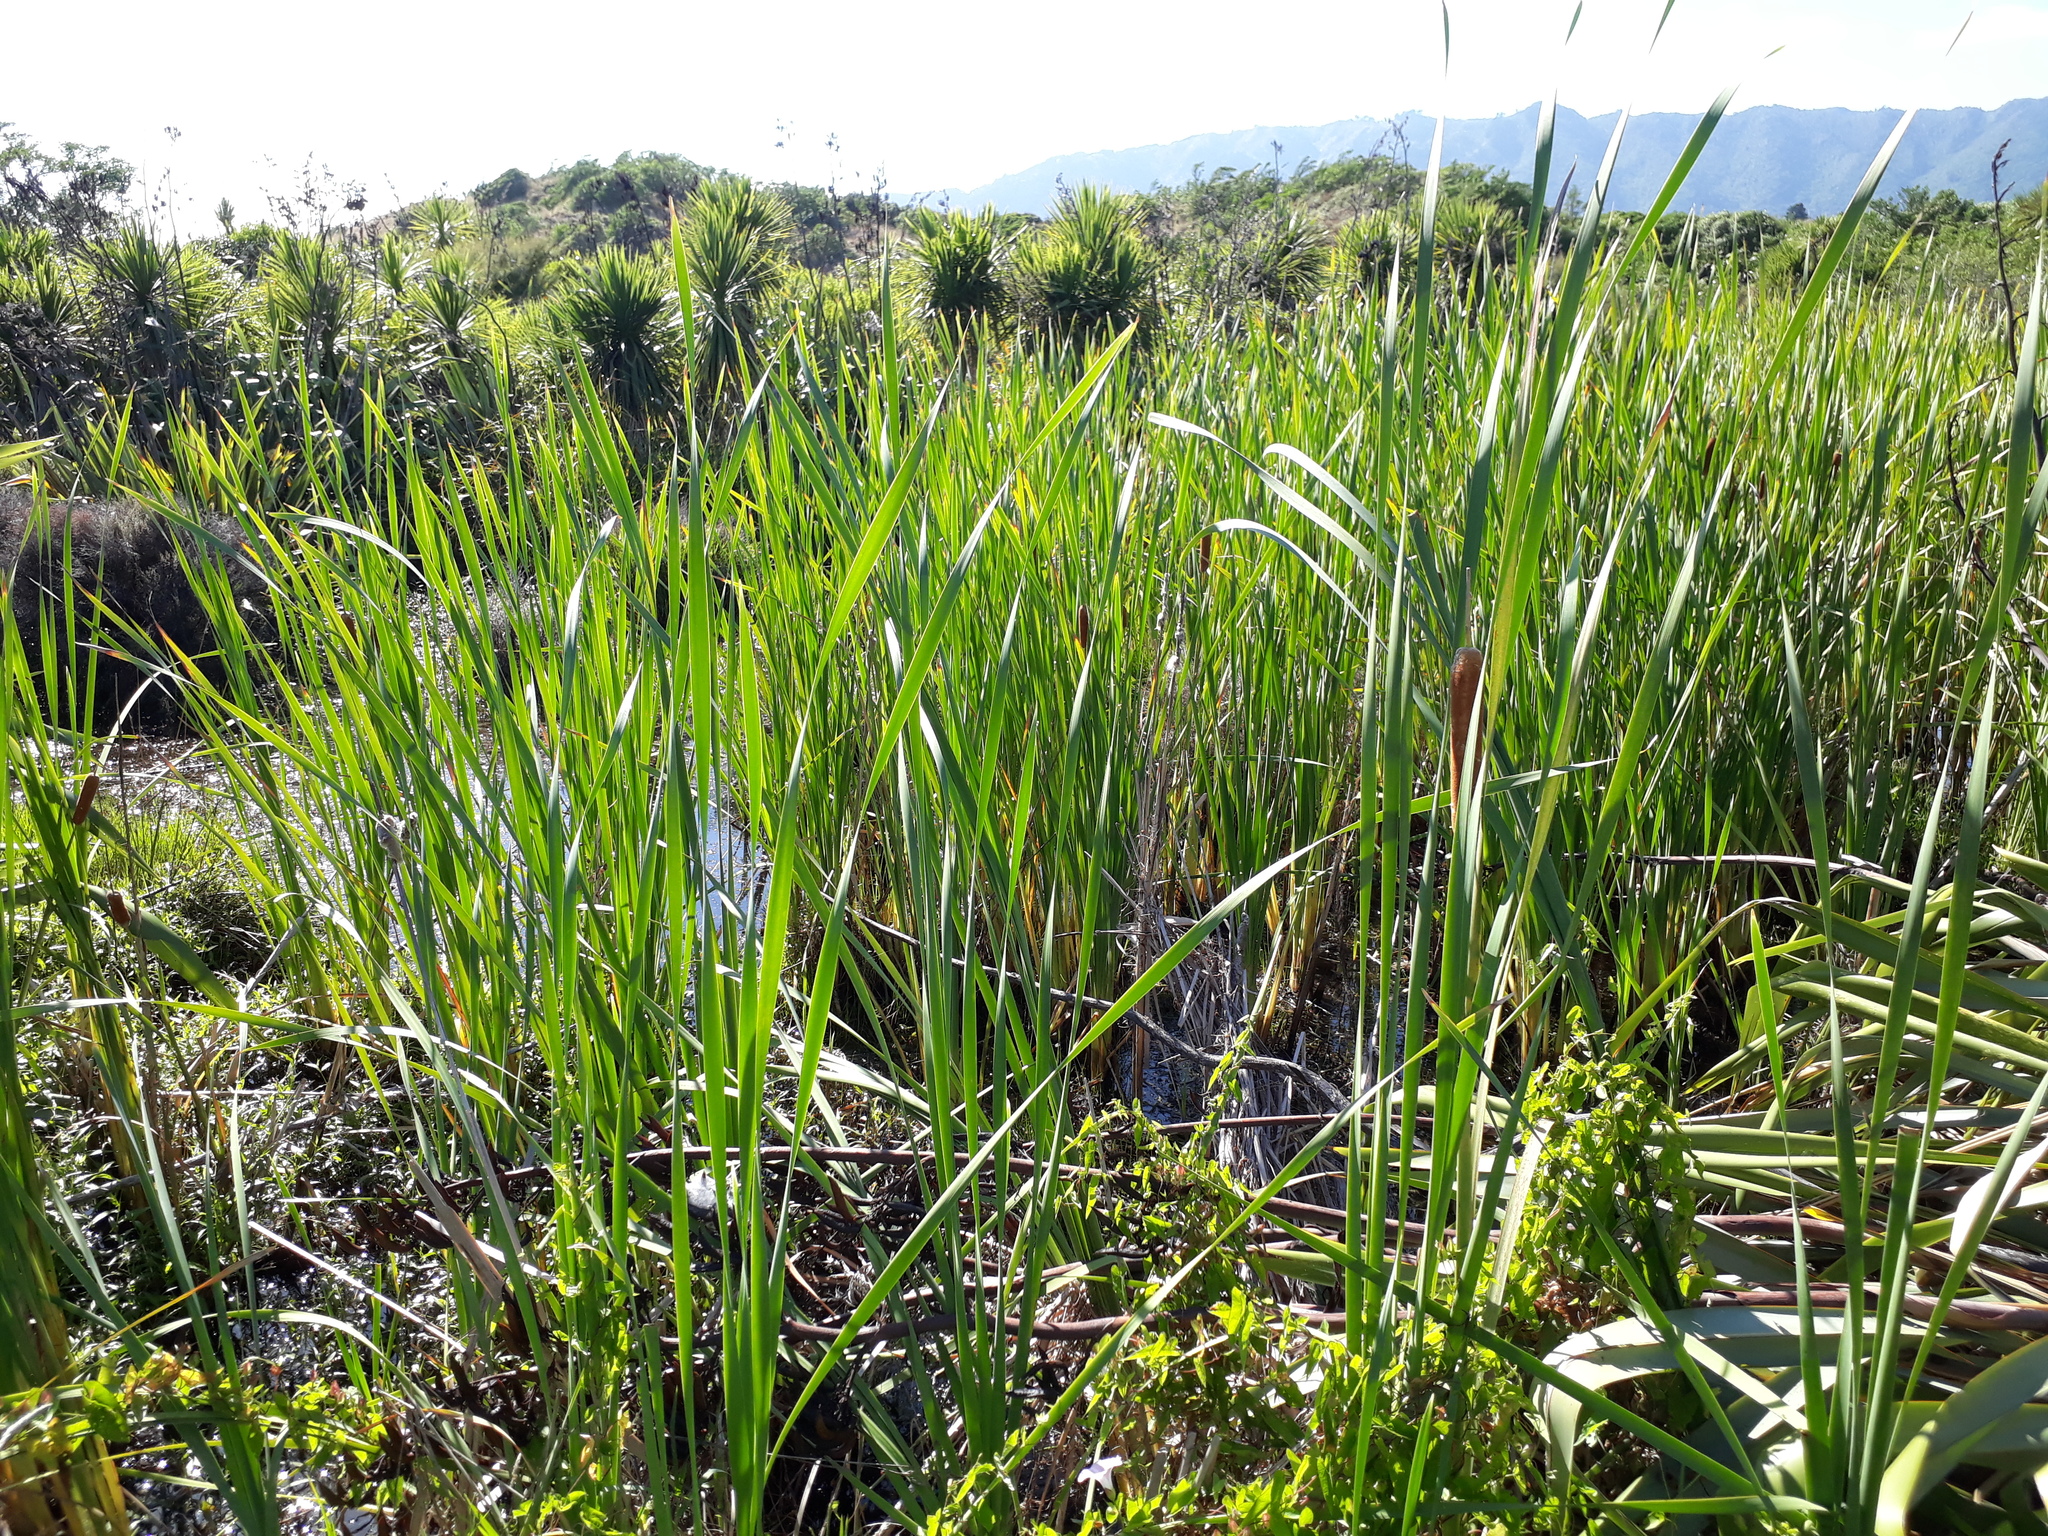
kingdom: Plantae
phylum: Tracheophyta
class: Liliopsida
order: Poales
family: Typhaceae
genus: Typha
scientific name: Typha orientalis
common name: Bullrush
